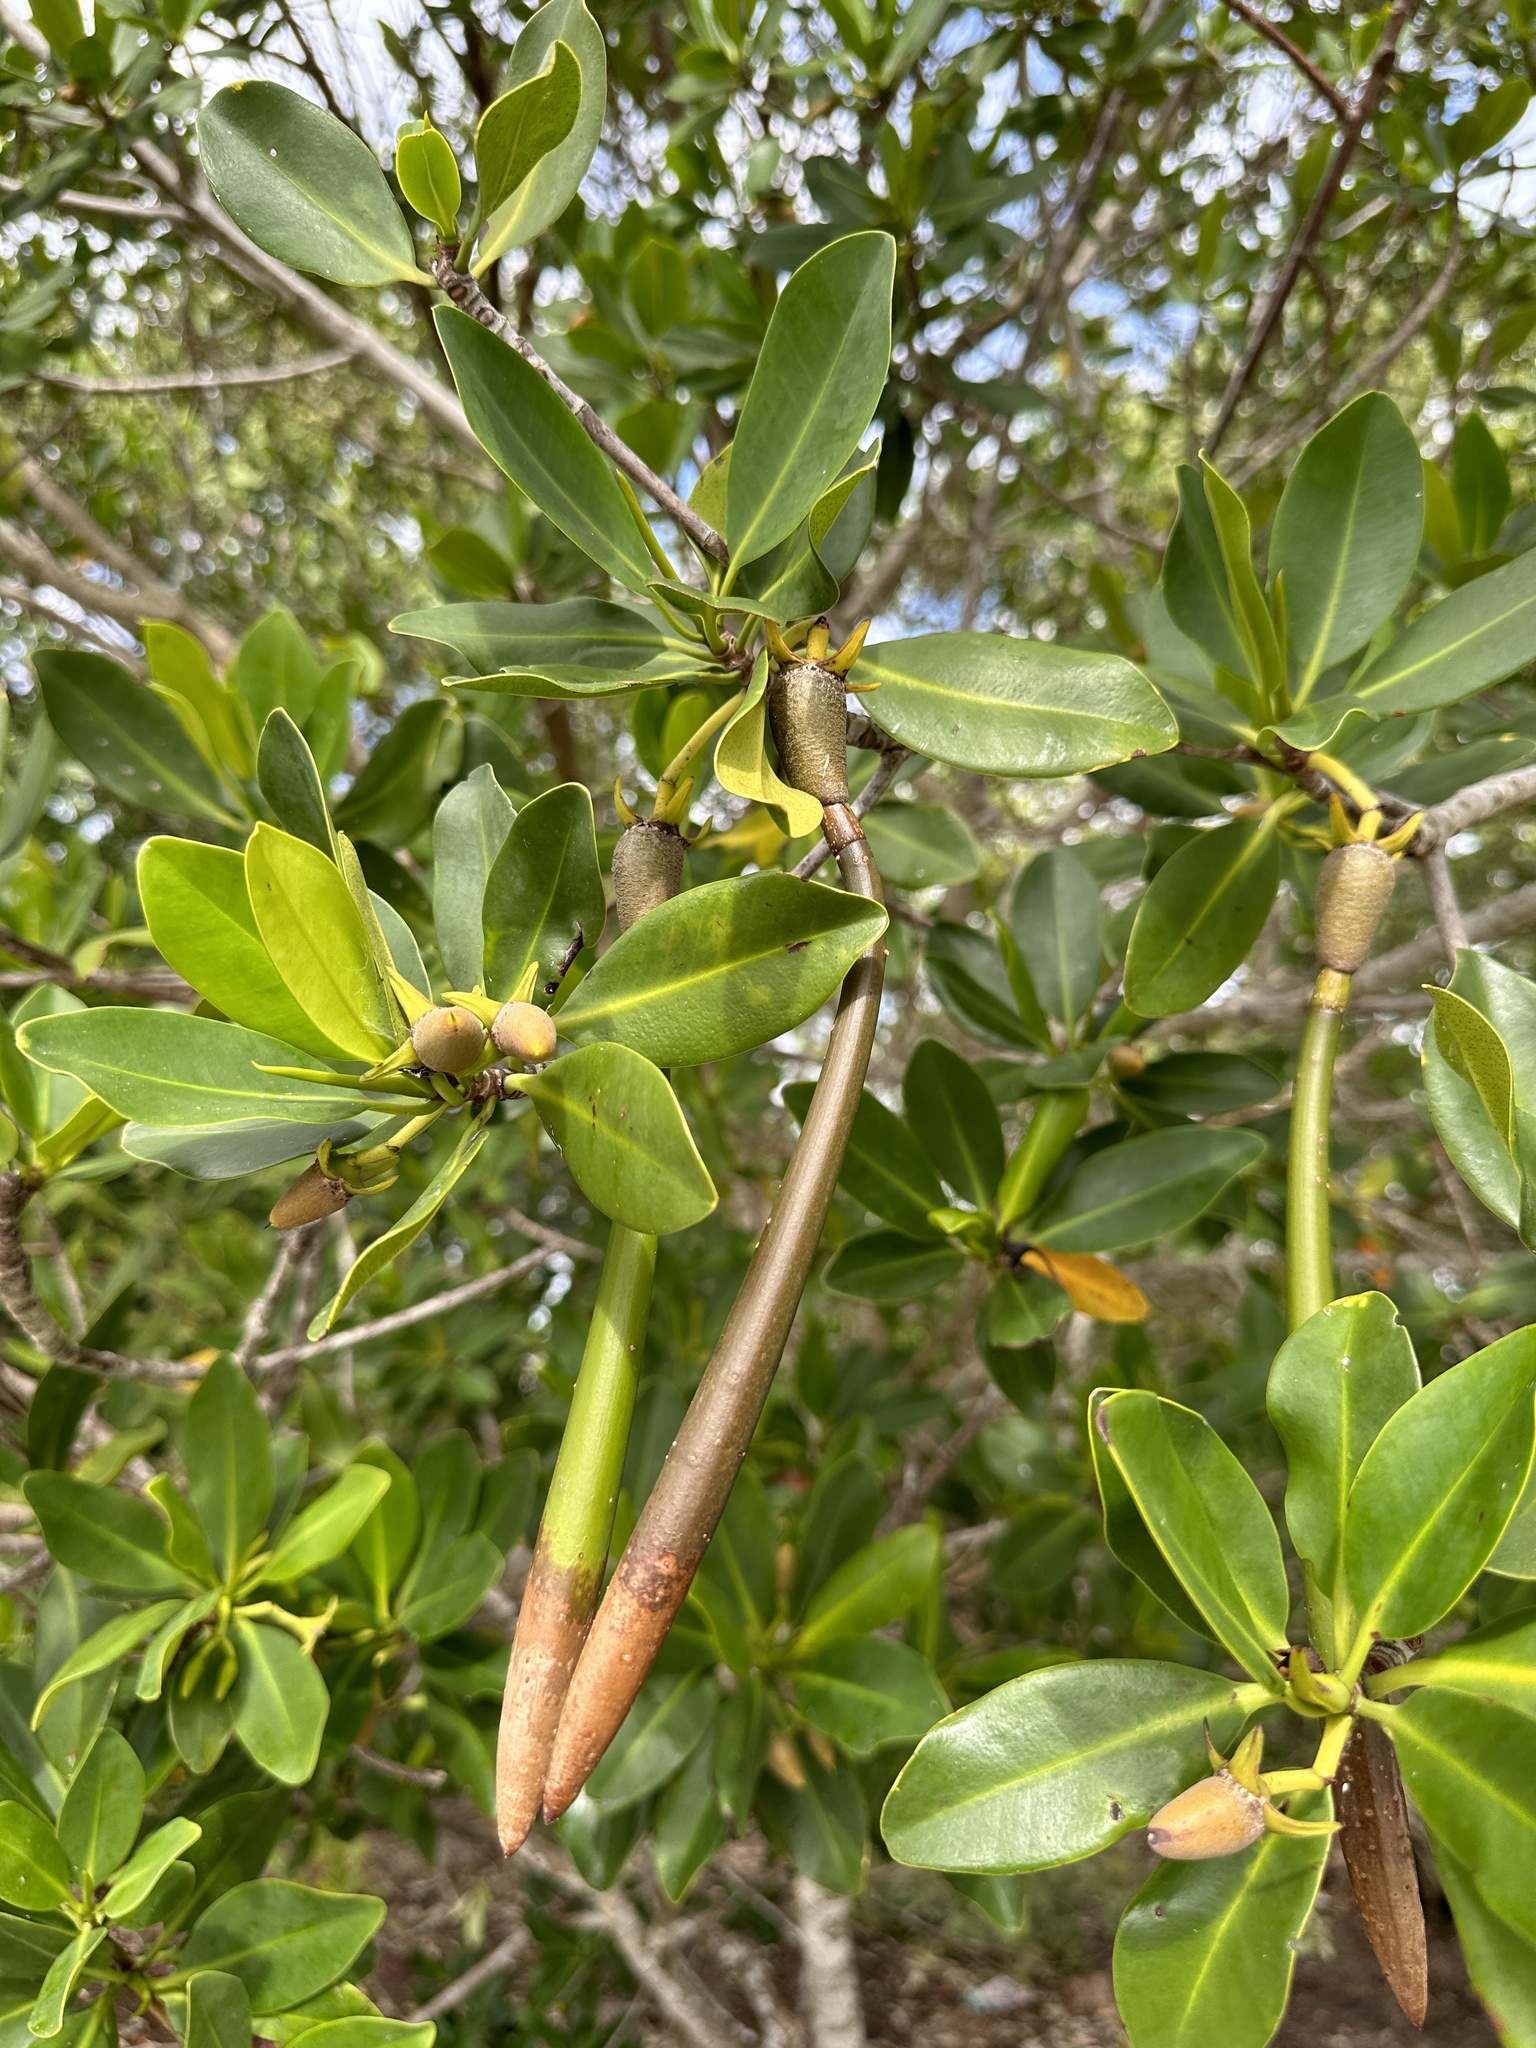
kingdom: Plantae
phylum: Tracheophyta
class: Magnoliopsida
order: Malpighiales
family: Rhizophoraceae
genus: Rhizophora
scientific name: Rhizophora mangle
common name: Red mangrove
